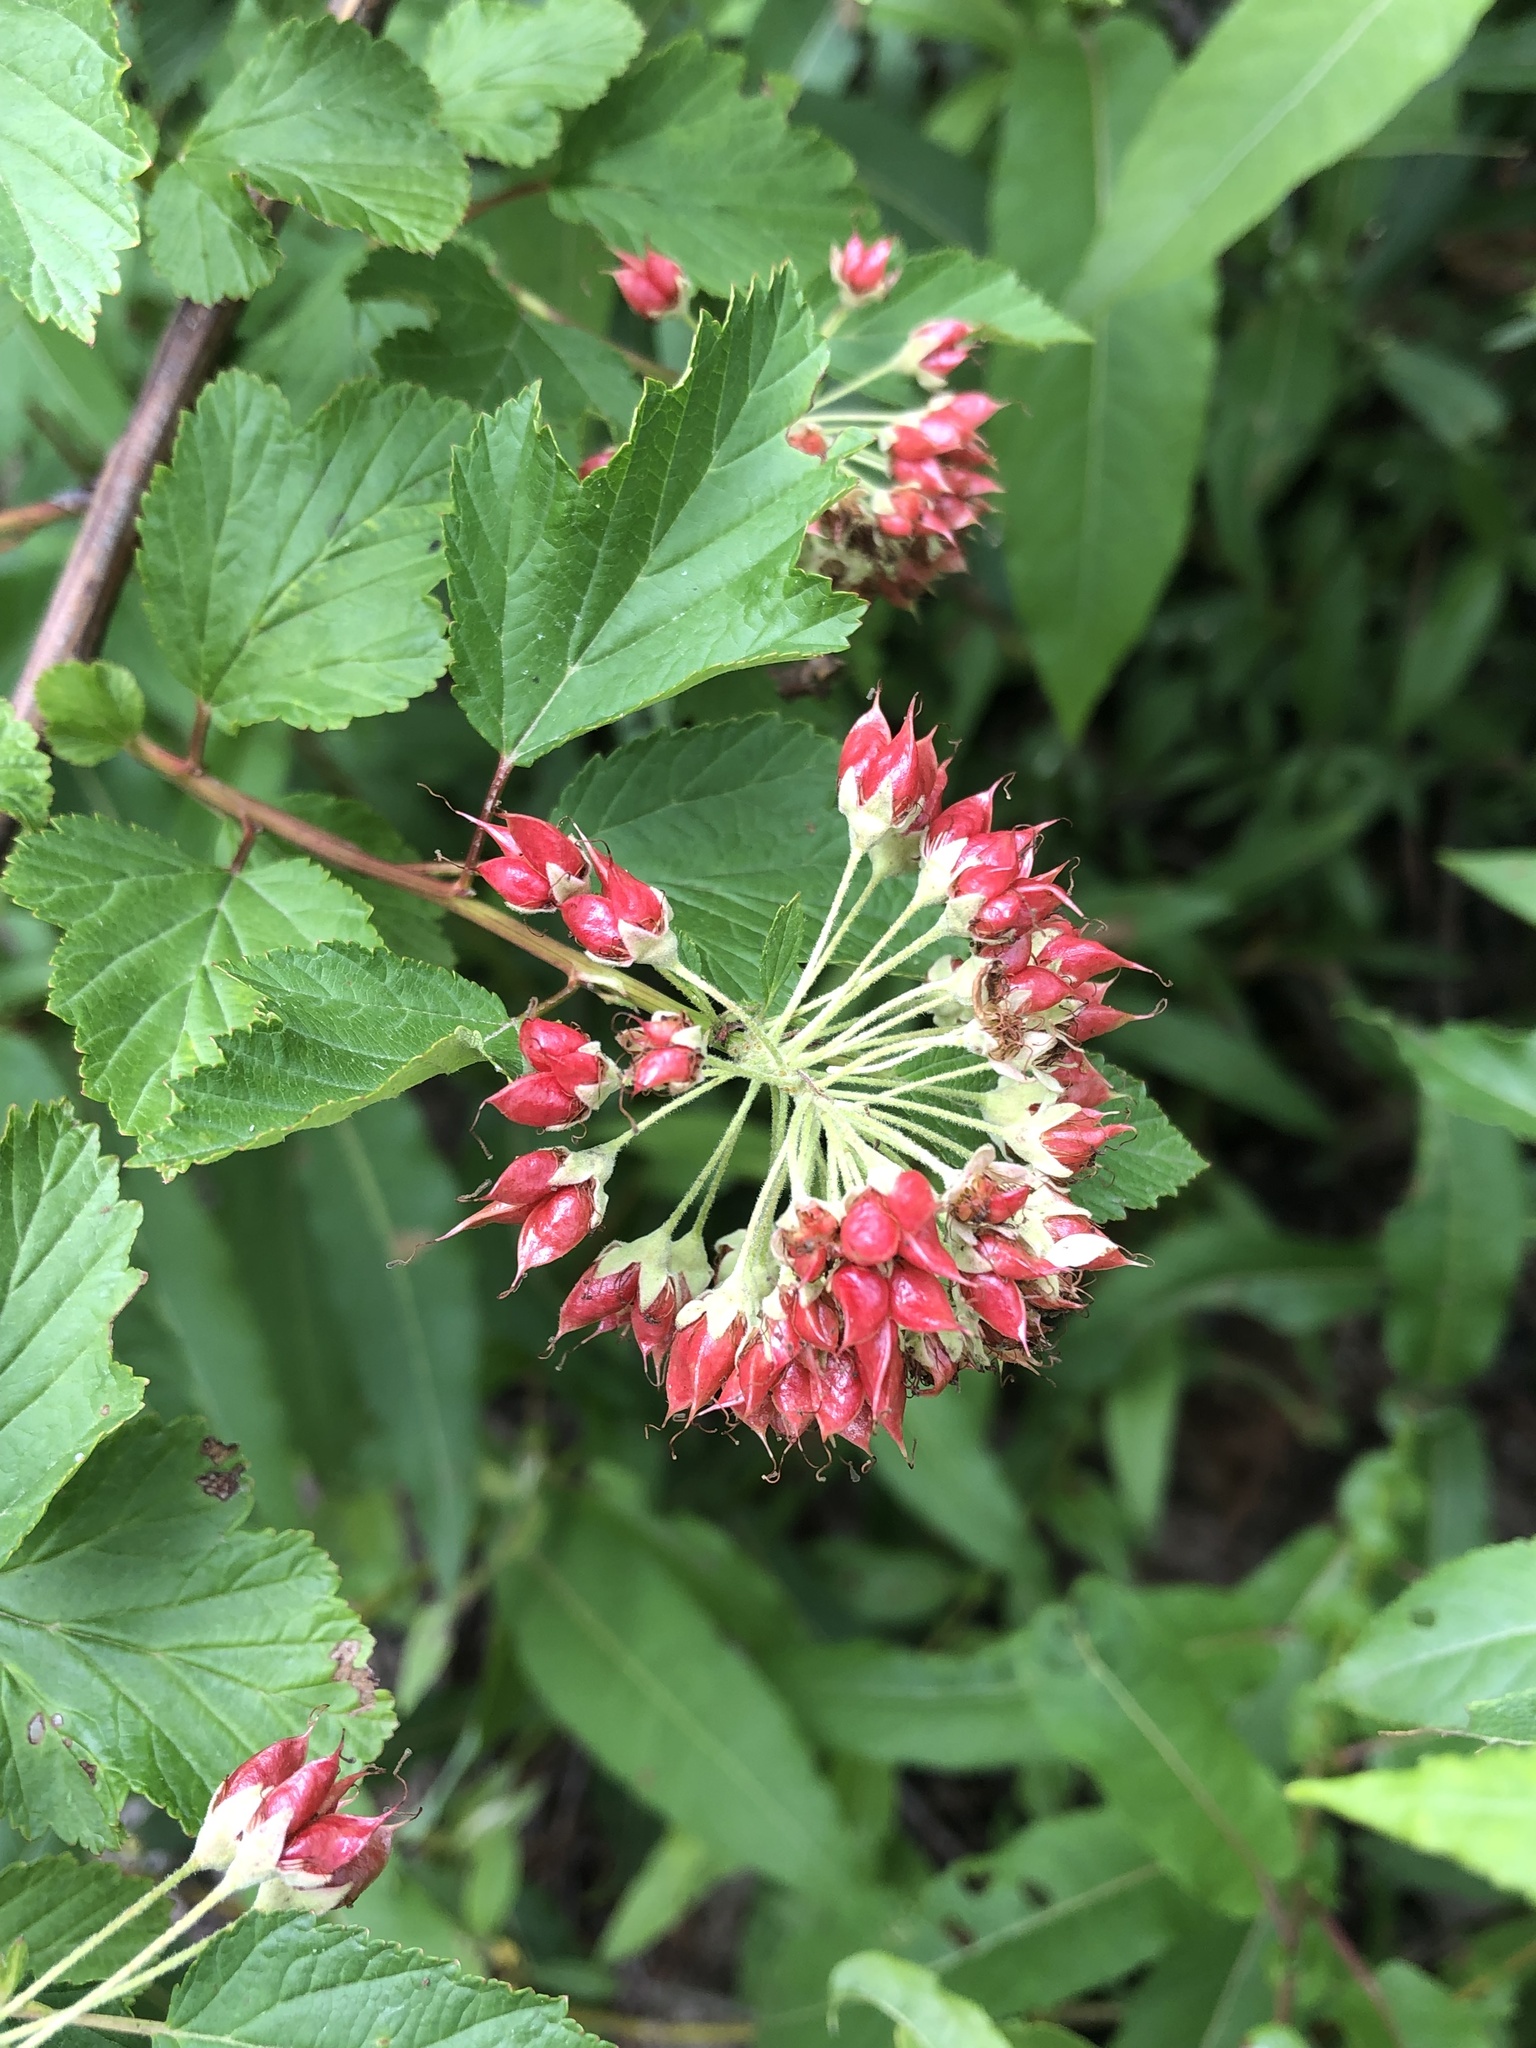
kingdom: Plantae
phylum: Tracheophyta
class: Magnoliopsida
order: Rosales
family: Rosaceae
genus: Physocarpus
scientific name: Physocarpus opulifolius
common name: Ninebark
